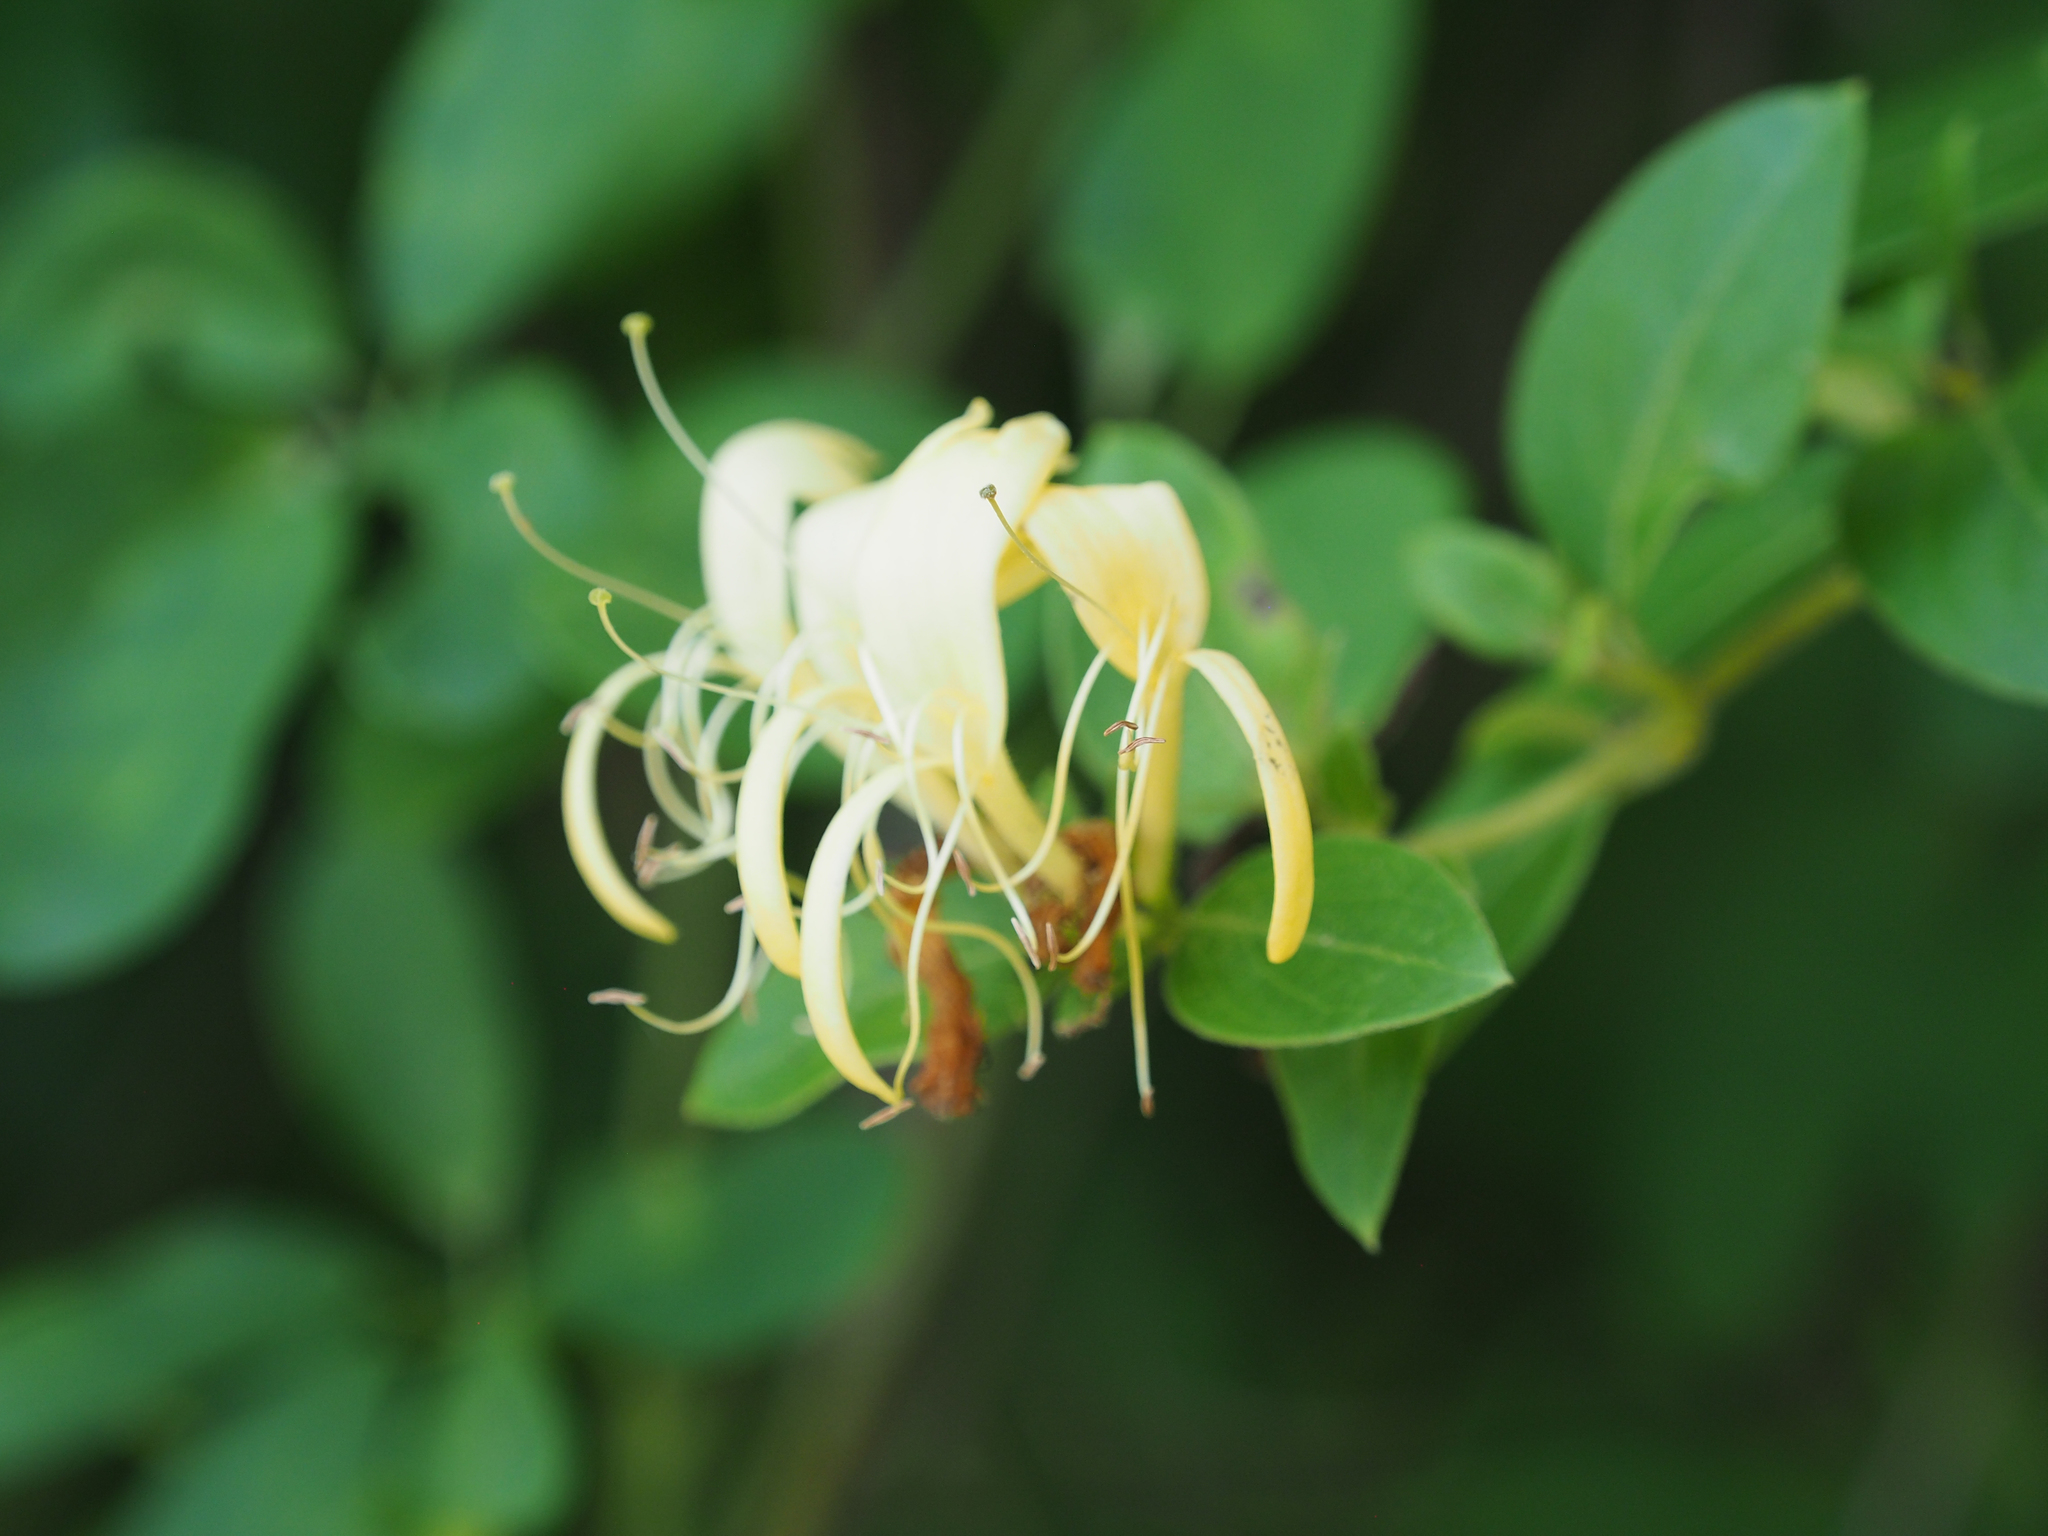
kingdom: Plantae
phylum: Tracheophyta
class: Magnoliopsida
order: Dipsacales
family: Caprifoliaceae
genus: Lonicera
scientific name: Lonicera japonica
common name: Japanese honeysuckle
